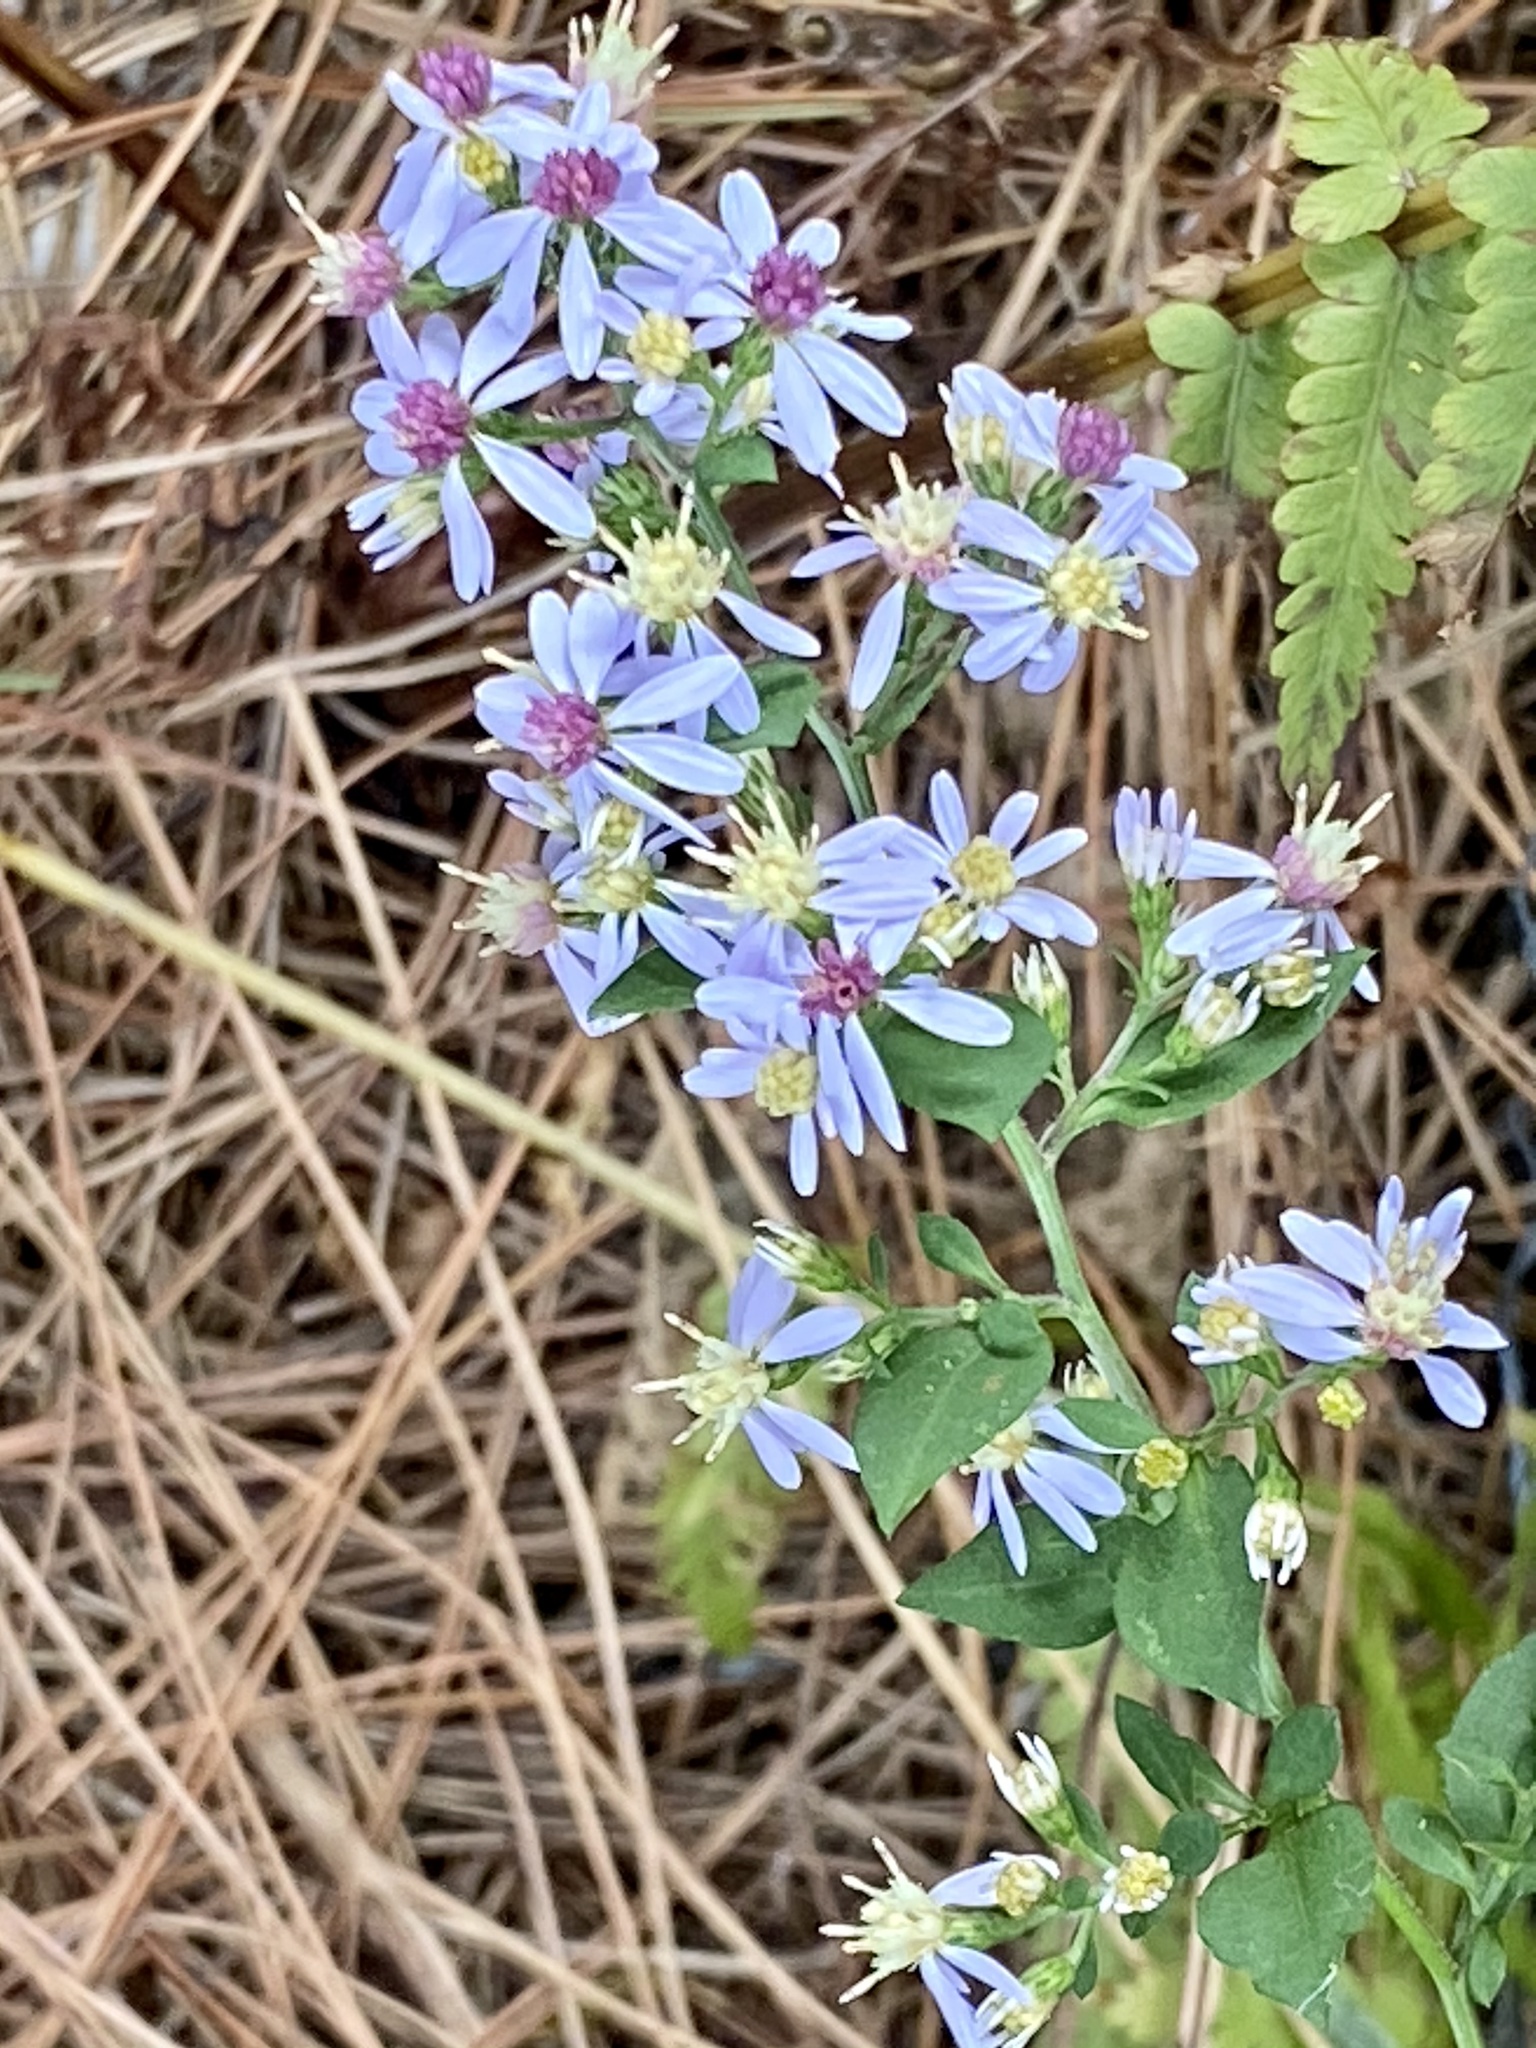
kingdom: Plantae
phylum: Tracheophyta
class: Magnoliopsida
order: Asterales
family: Asteraceae
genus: Symphyotrichum
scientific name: Symphyotrichum cordifolium
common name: Beeweed
